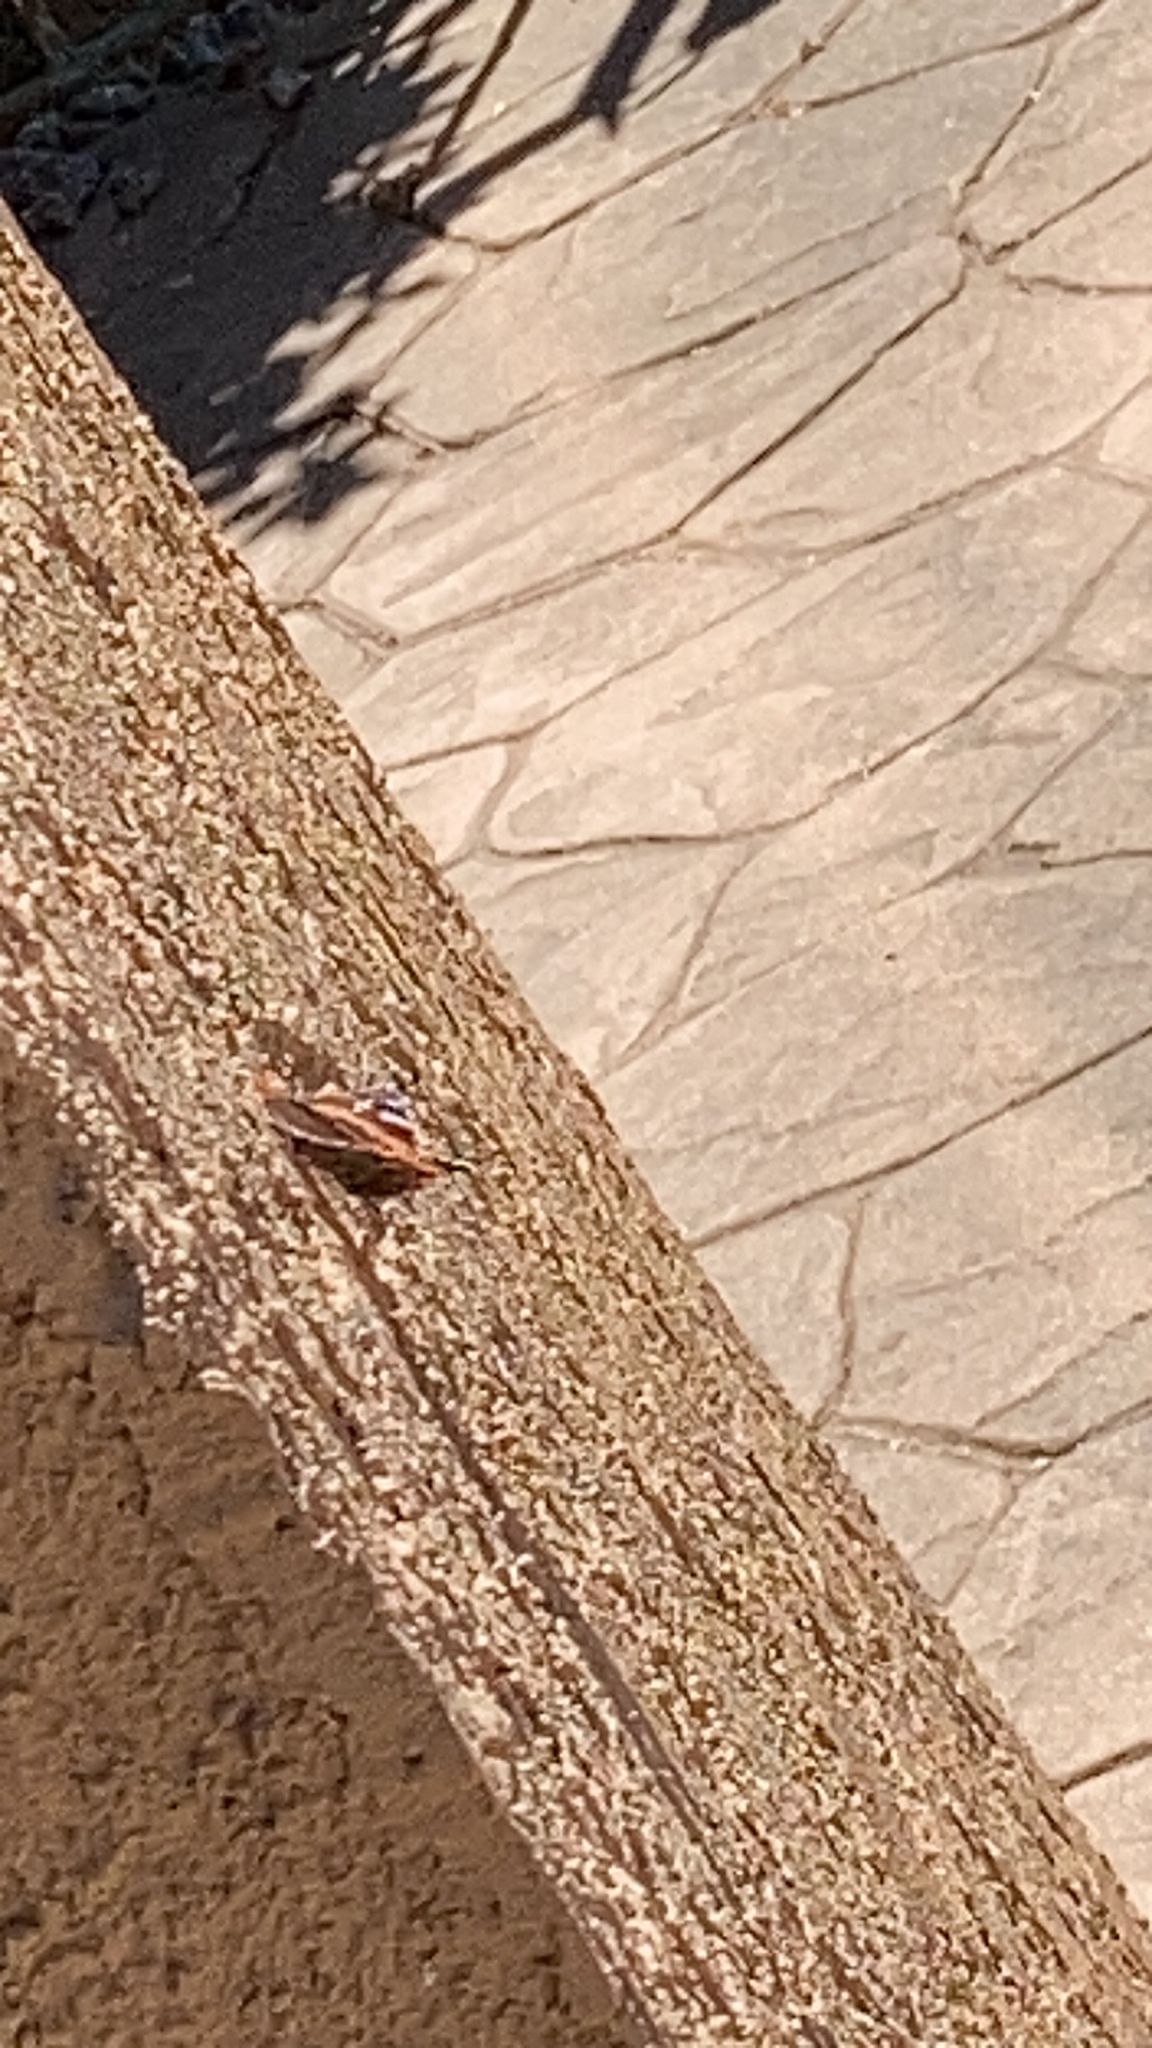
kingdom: Animalia
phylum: Arthropoda
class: Insecta
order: Lepidoptera
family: Nymphalidae
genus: Vanessa
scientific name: Vanessa atalanta
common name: Red admiral
